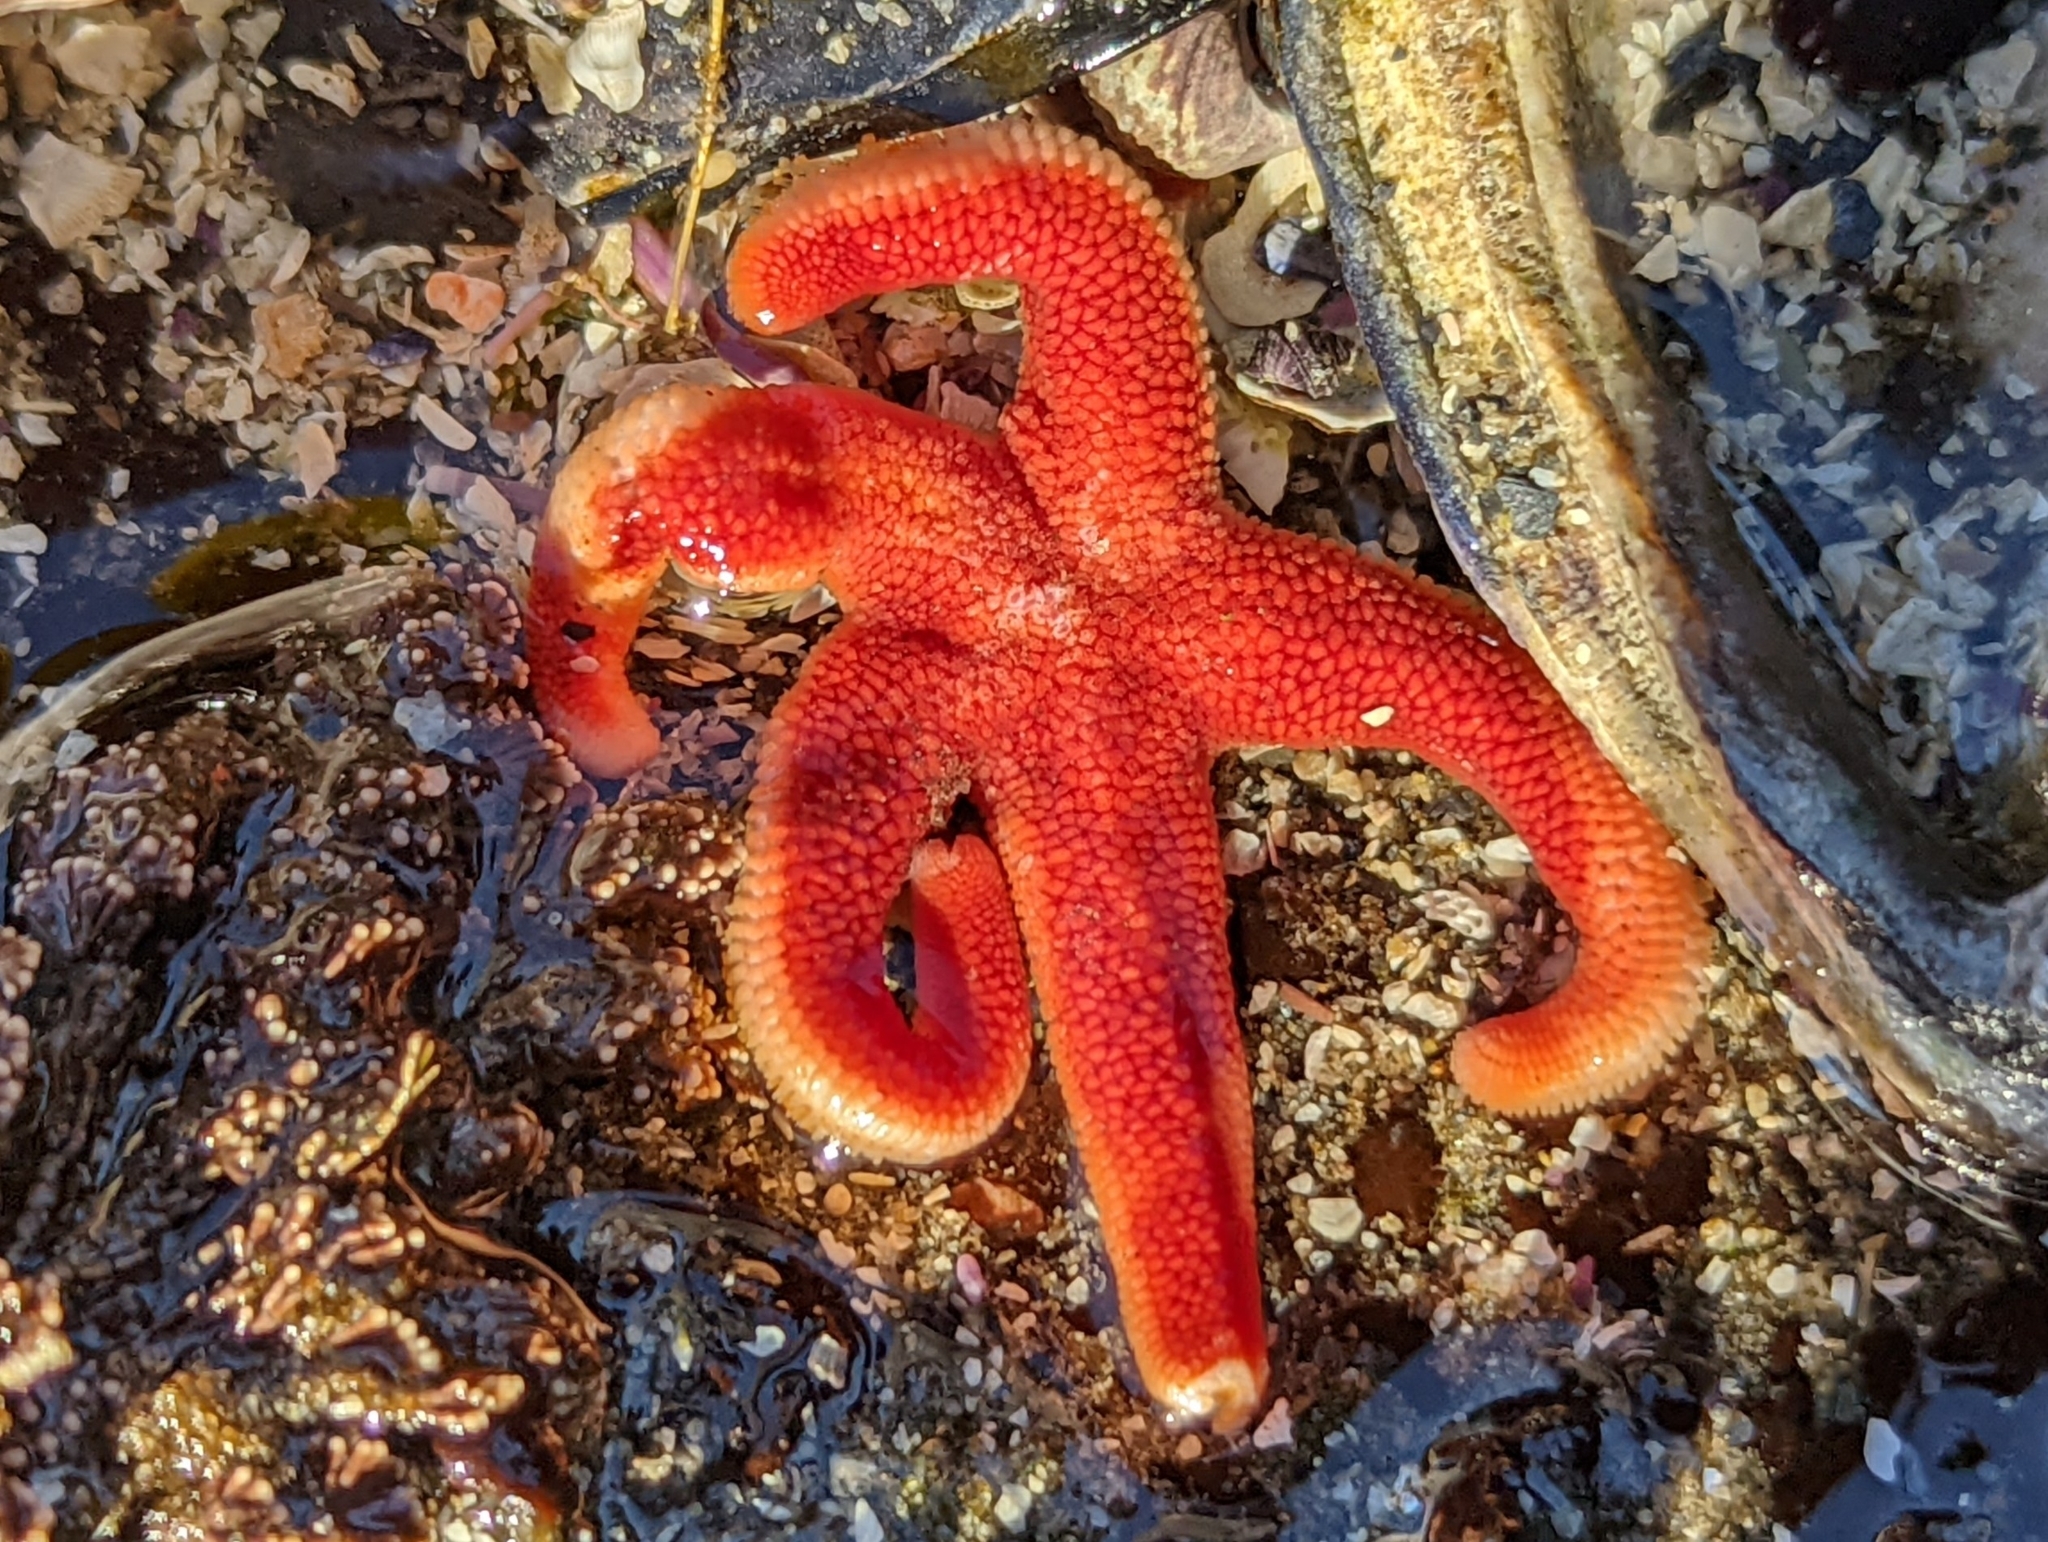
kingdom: Animalia
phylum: Echinodermata
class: Asteroidea
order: Spinulosida
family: Echinasteridae
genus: Henricia
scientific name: Henricia
